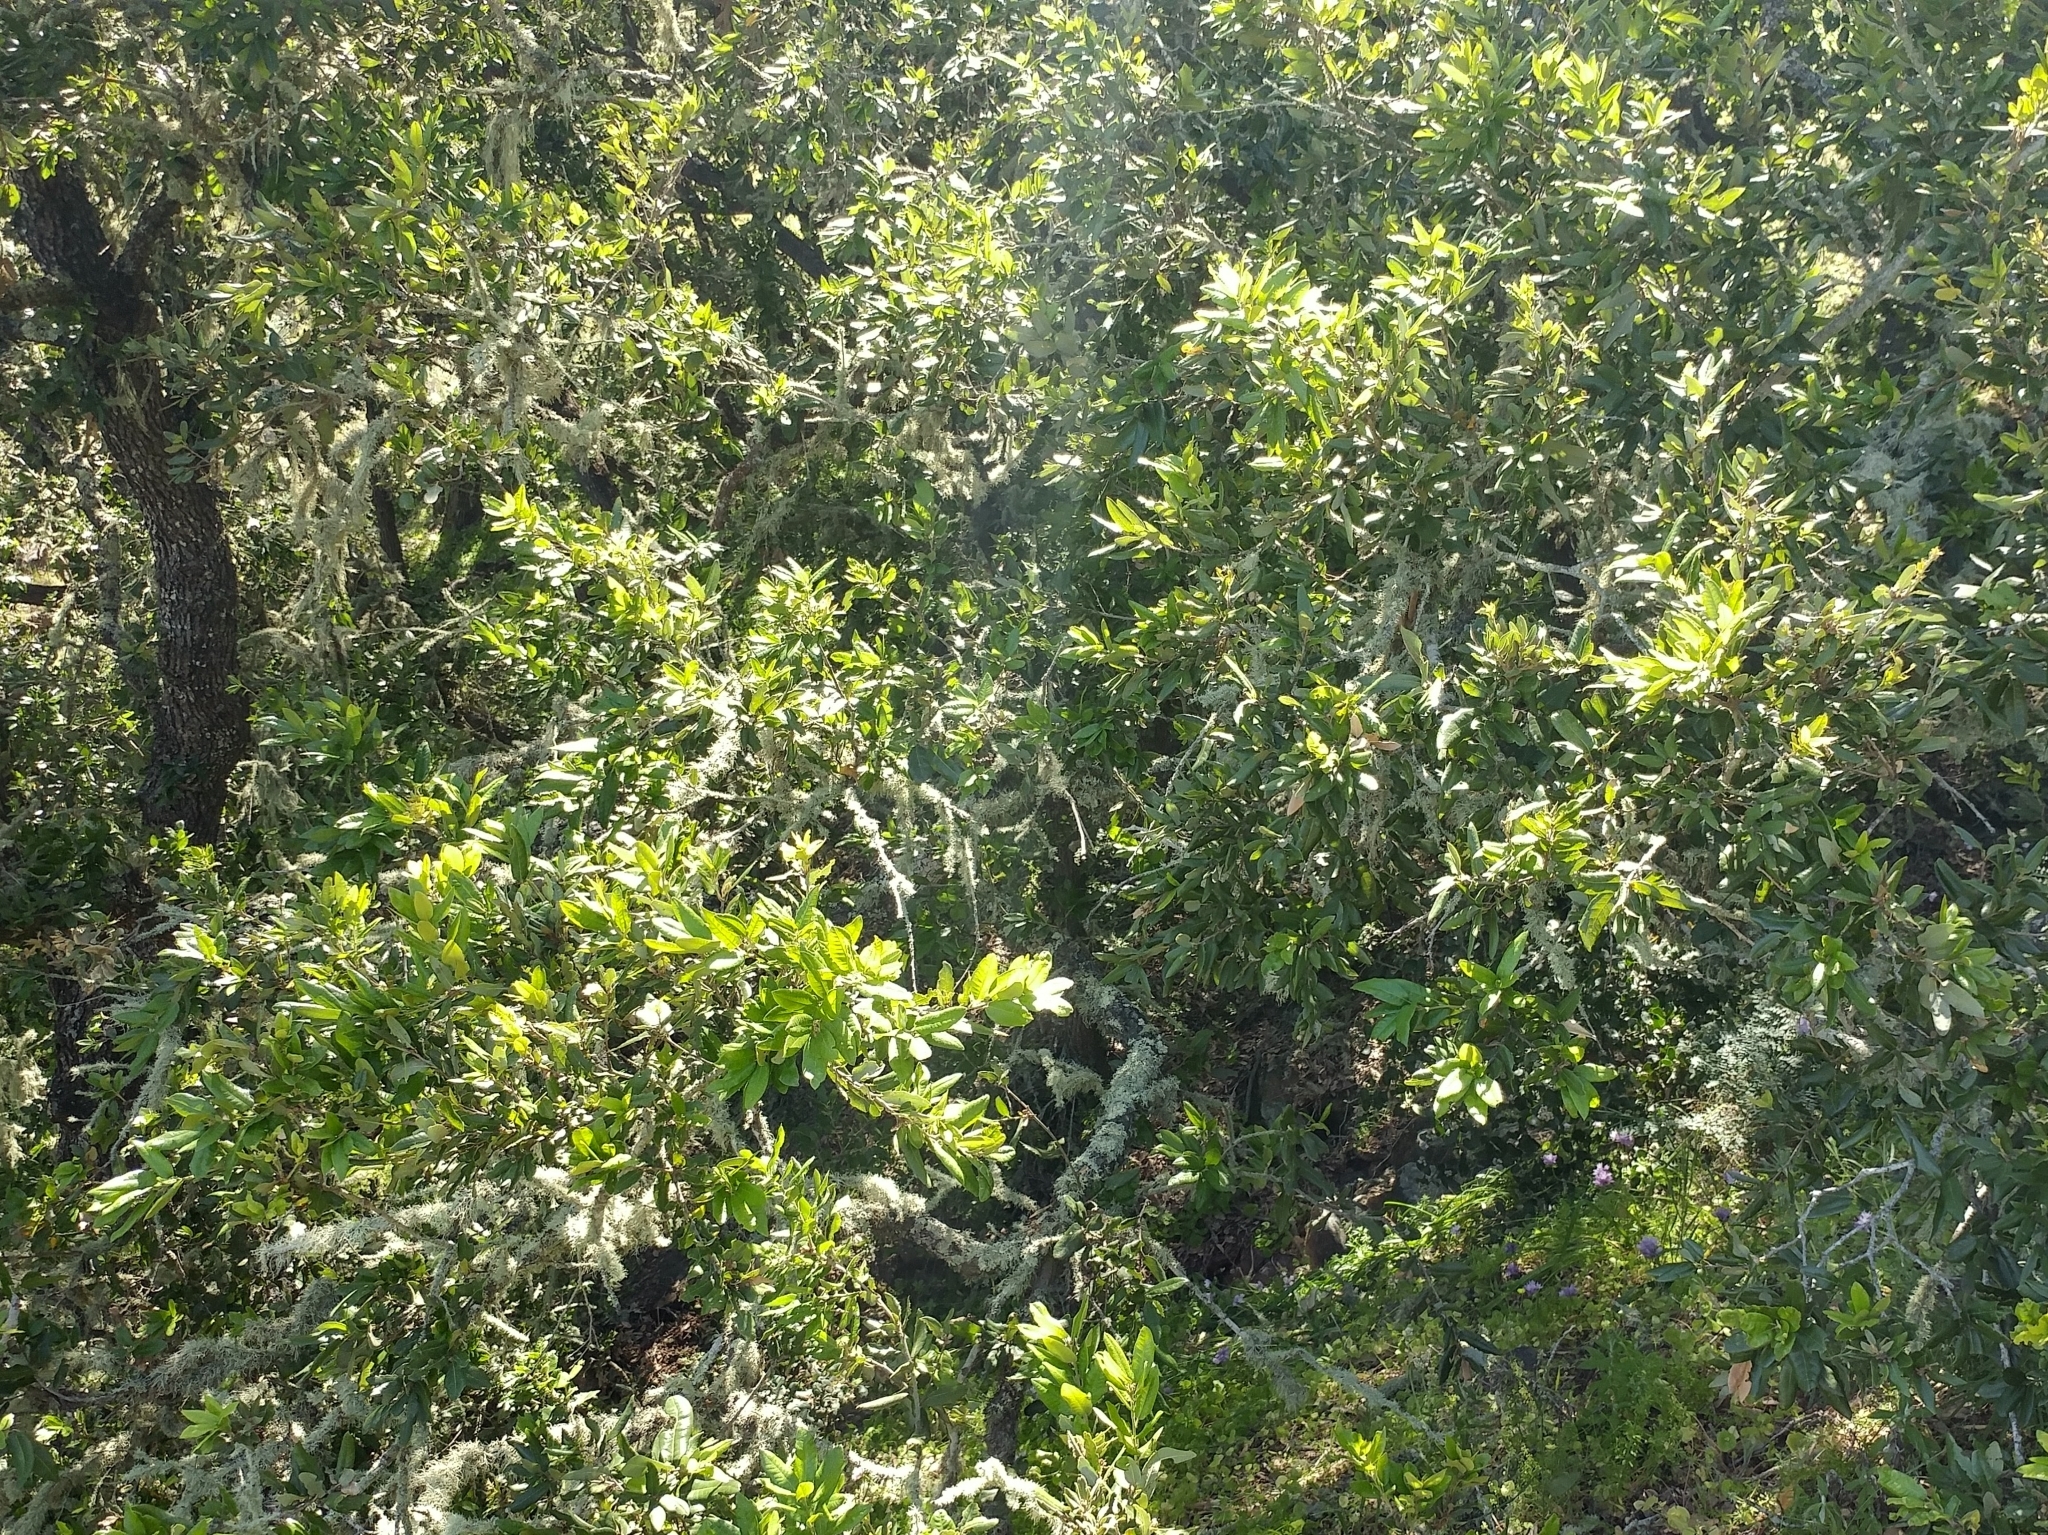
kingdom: Plantae
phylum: Tracheophyta
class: Magnoliopsida
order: Fagales
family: Fagaceae
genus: Quercus
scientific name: Quercus tomentella
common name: Island oak
